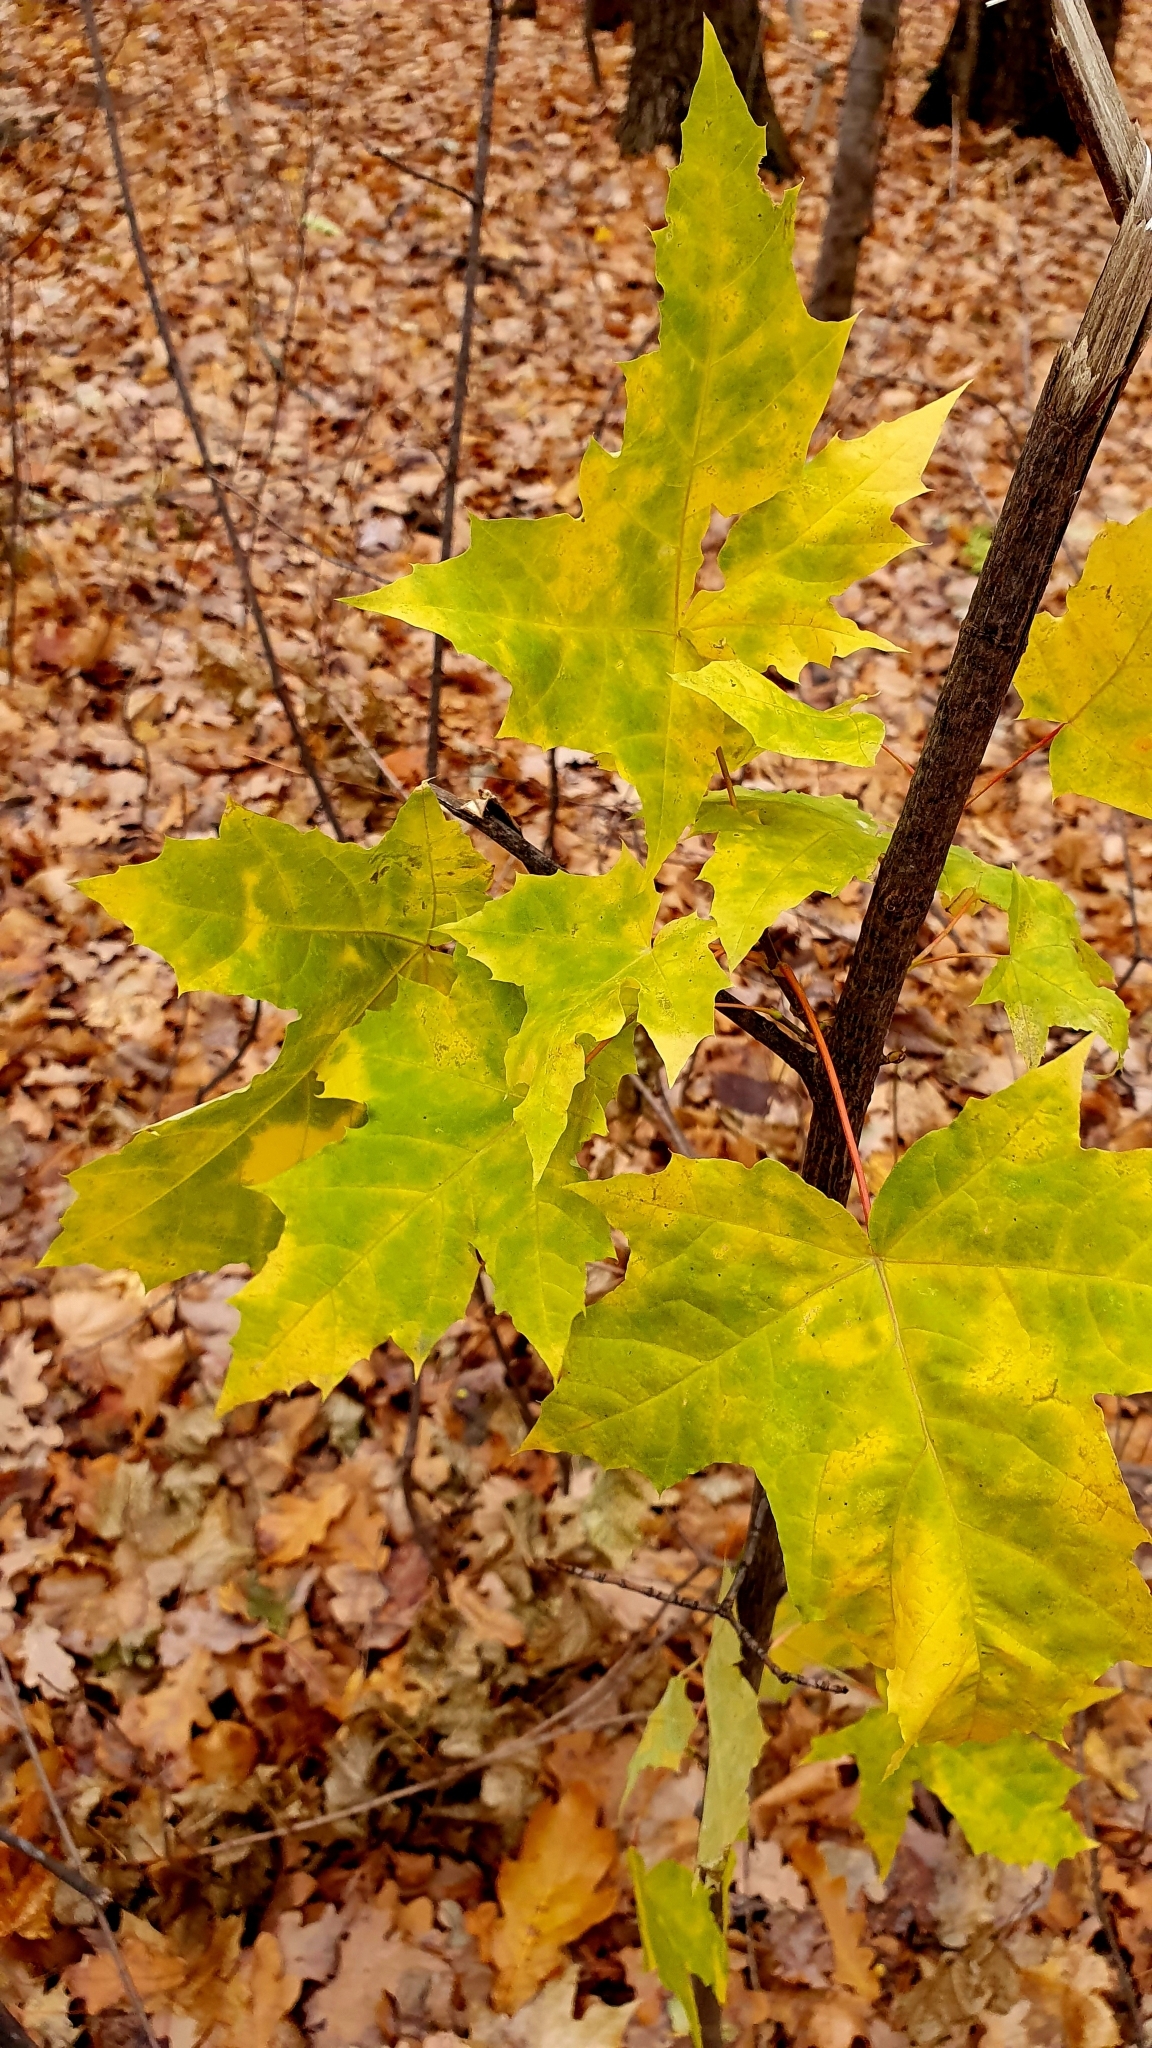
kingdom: Plantae
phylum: Tracheophyta
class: Magnoliopsida
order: Sapindales
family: Sapindaceae
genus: Acer
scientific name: Acer platanoides
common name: Norway maple
